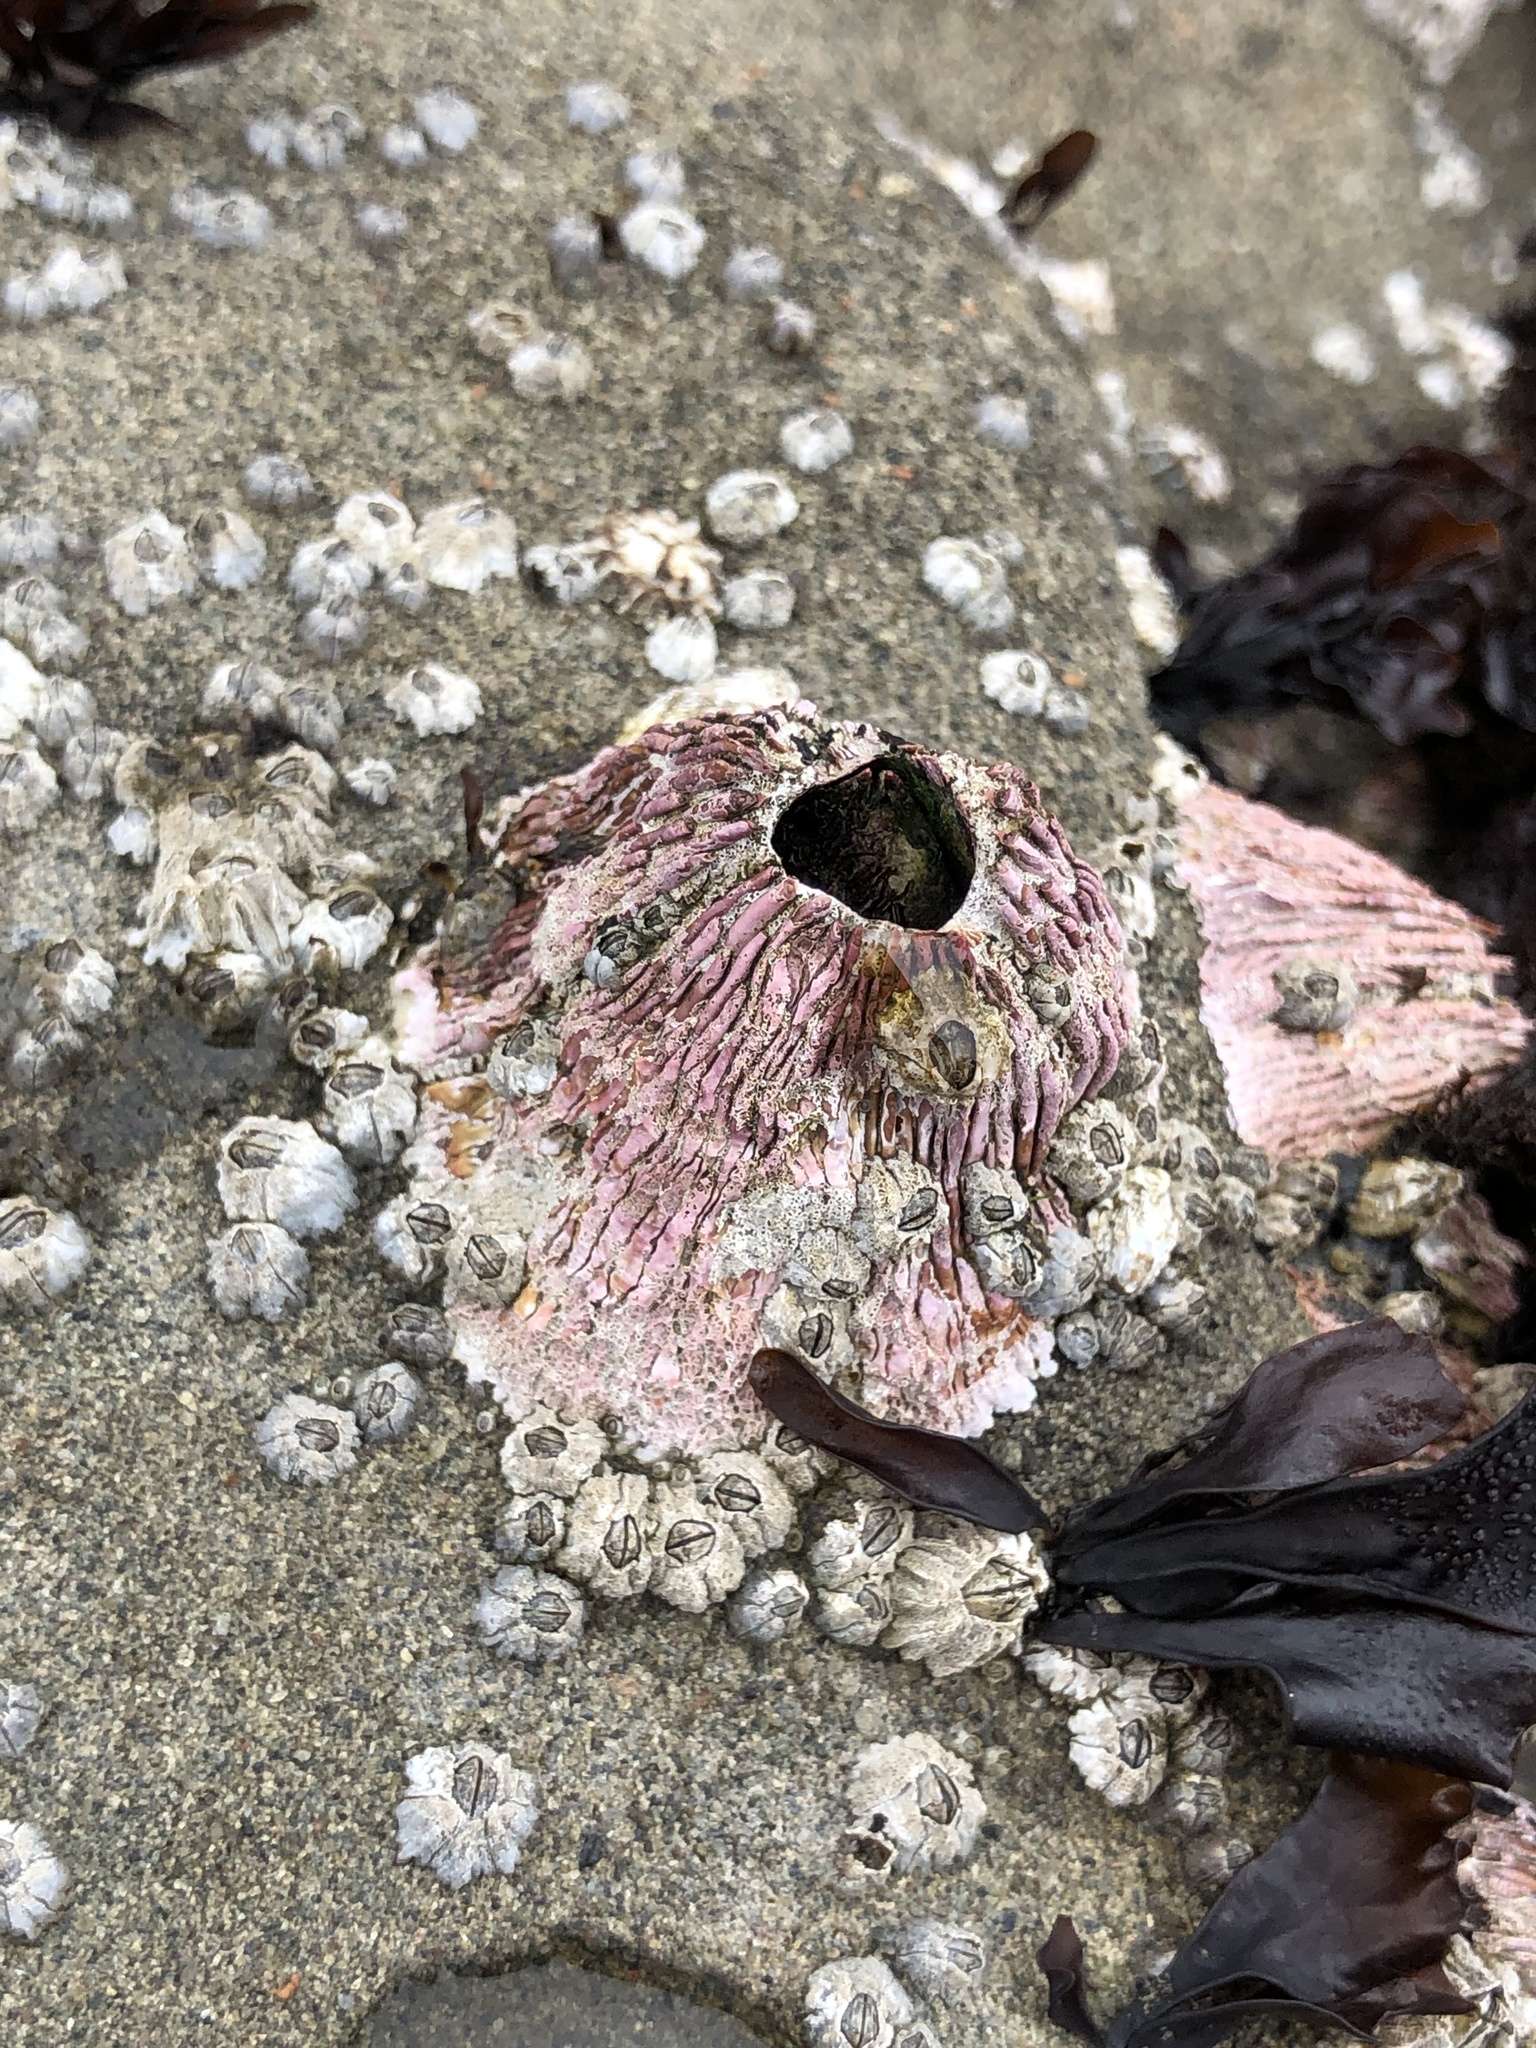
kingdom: Animalia
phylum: Arthropoda
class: Maxillopoda
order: Sessilia
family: Tetraclitidae
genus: Tetraclita
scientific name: Tetraclita rubescens
